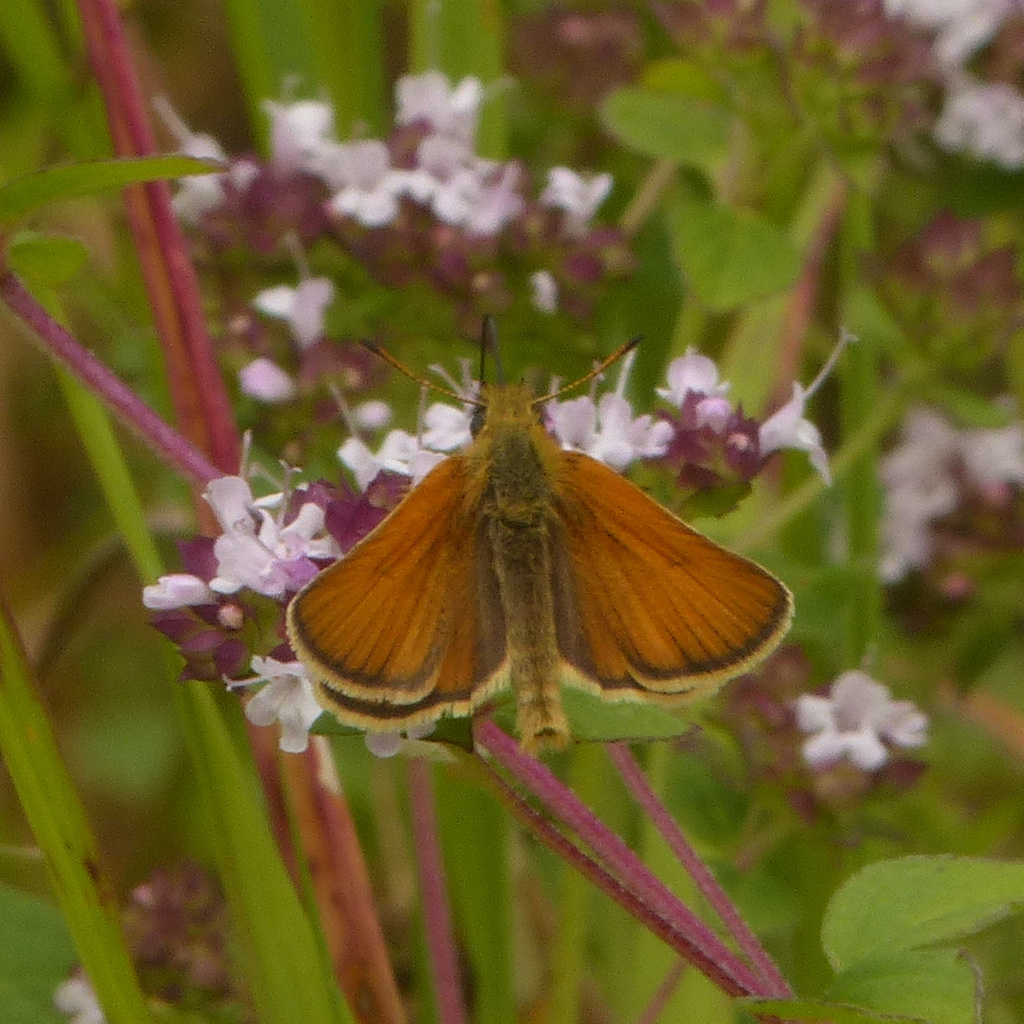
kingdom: Animalia
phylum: Arthropoda
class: Insecta
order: Lepidoptera
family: Hesperiidae
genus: Thymelicus
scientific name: Thymelicus lineola
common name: Essex skipper
